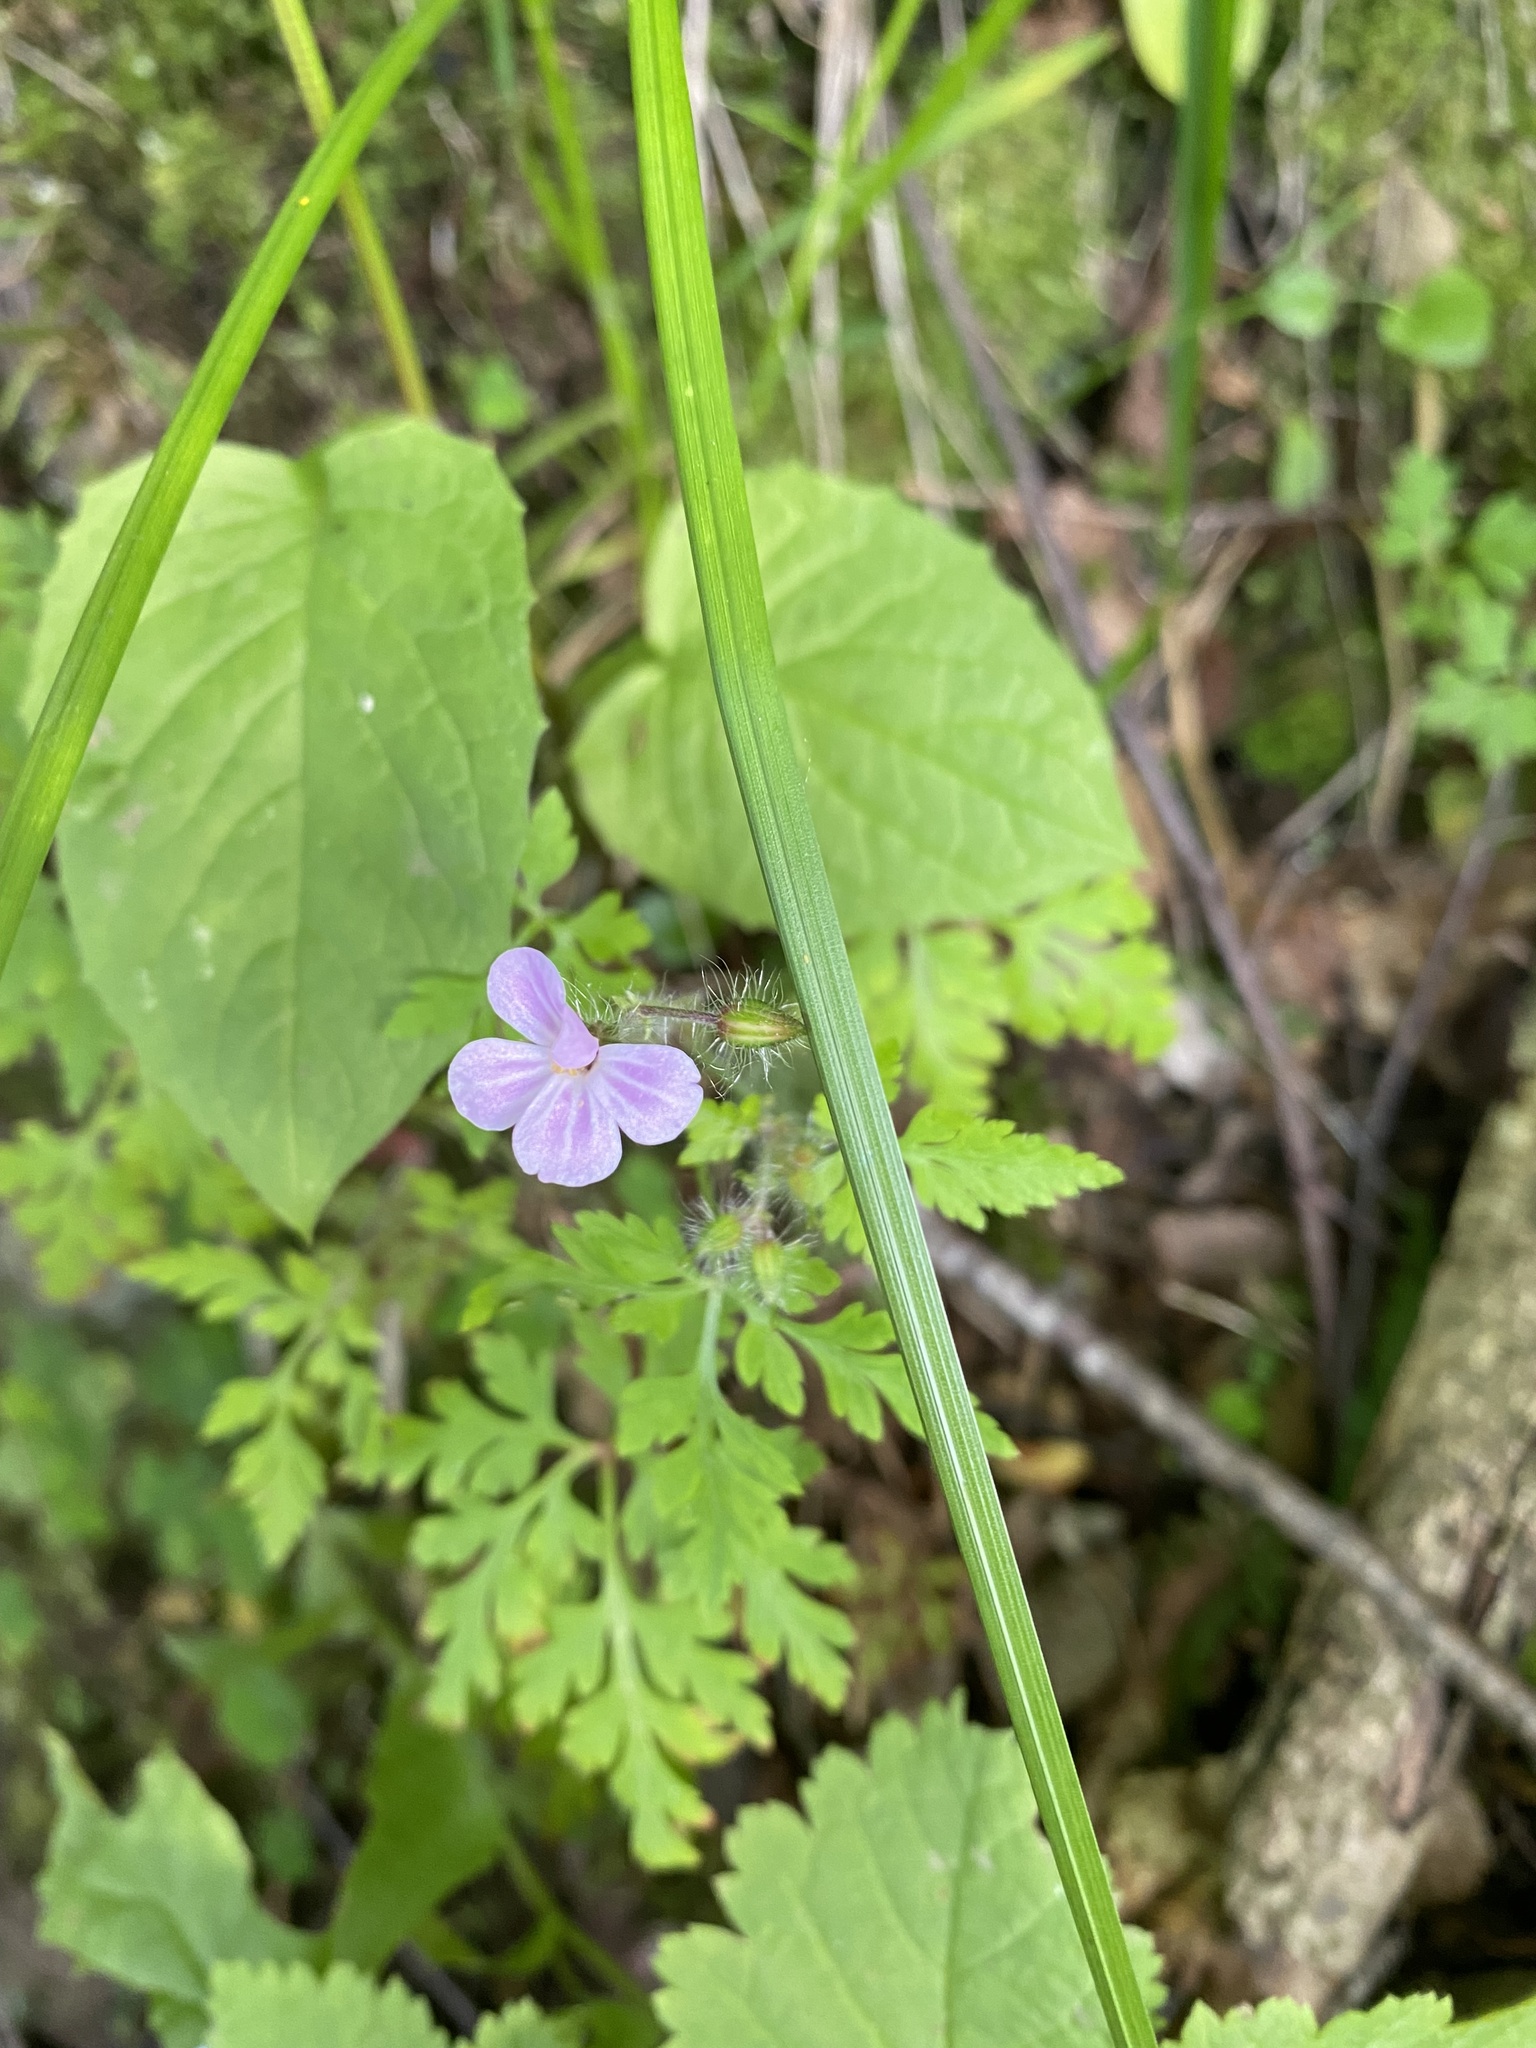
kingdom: Plantae
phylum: Tracheophyta
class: Magnoliopsida
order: Geraniales
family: Geraniaceae
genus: Geranium
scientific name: Geranium robertianum
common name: Herb-robert
